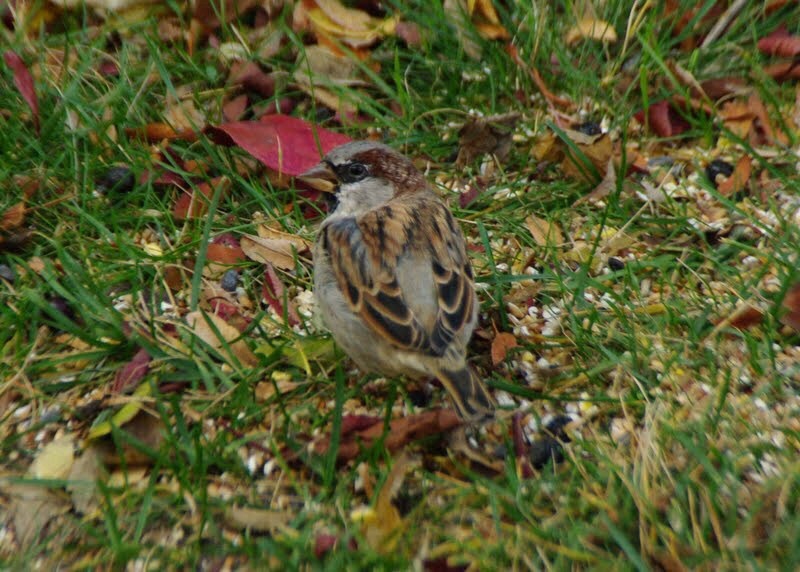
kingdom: Animalia
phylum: Chordata
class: Aves
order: Passeriformes
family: Passeridae
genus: Passer
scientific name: Passer domesticus
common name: House sparrow
